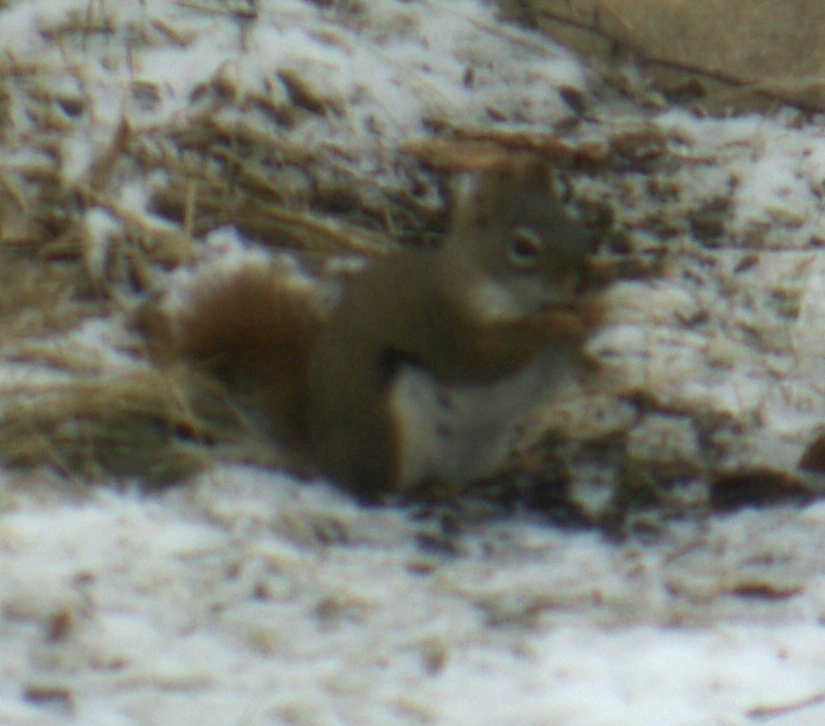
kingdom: Animalia
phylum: Chordata
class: Mammalia
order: Rodentia
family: Sciuridae
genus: Tamiasciurus
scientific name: Tamiasciurus hudsonicus
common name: Red squirrel
